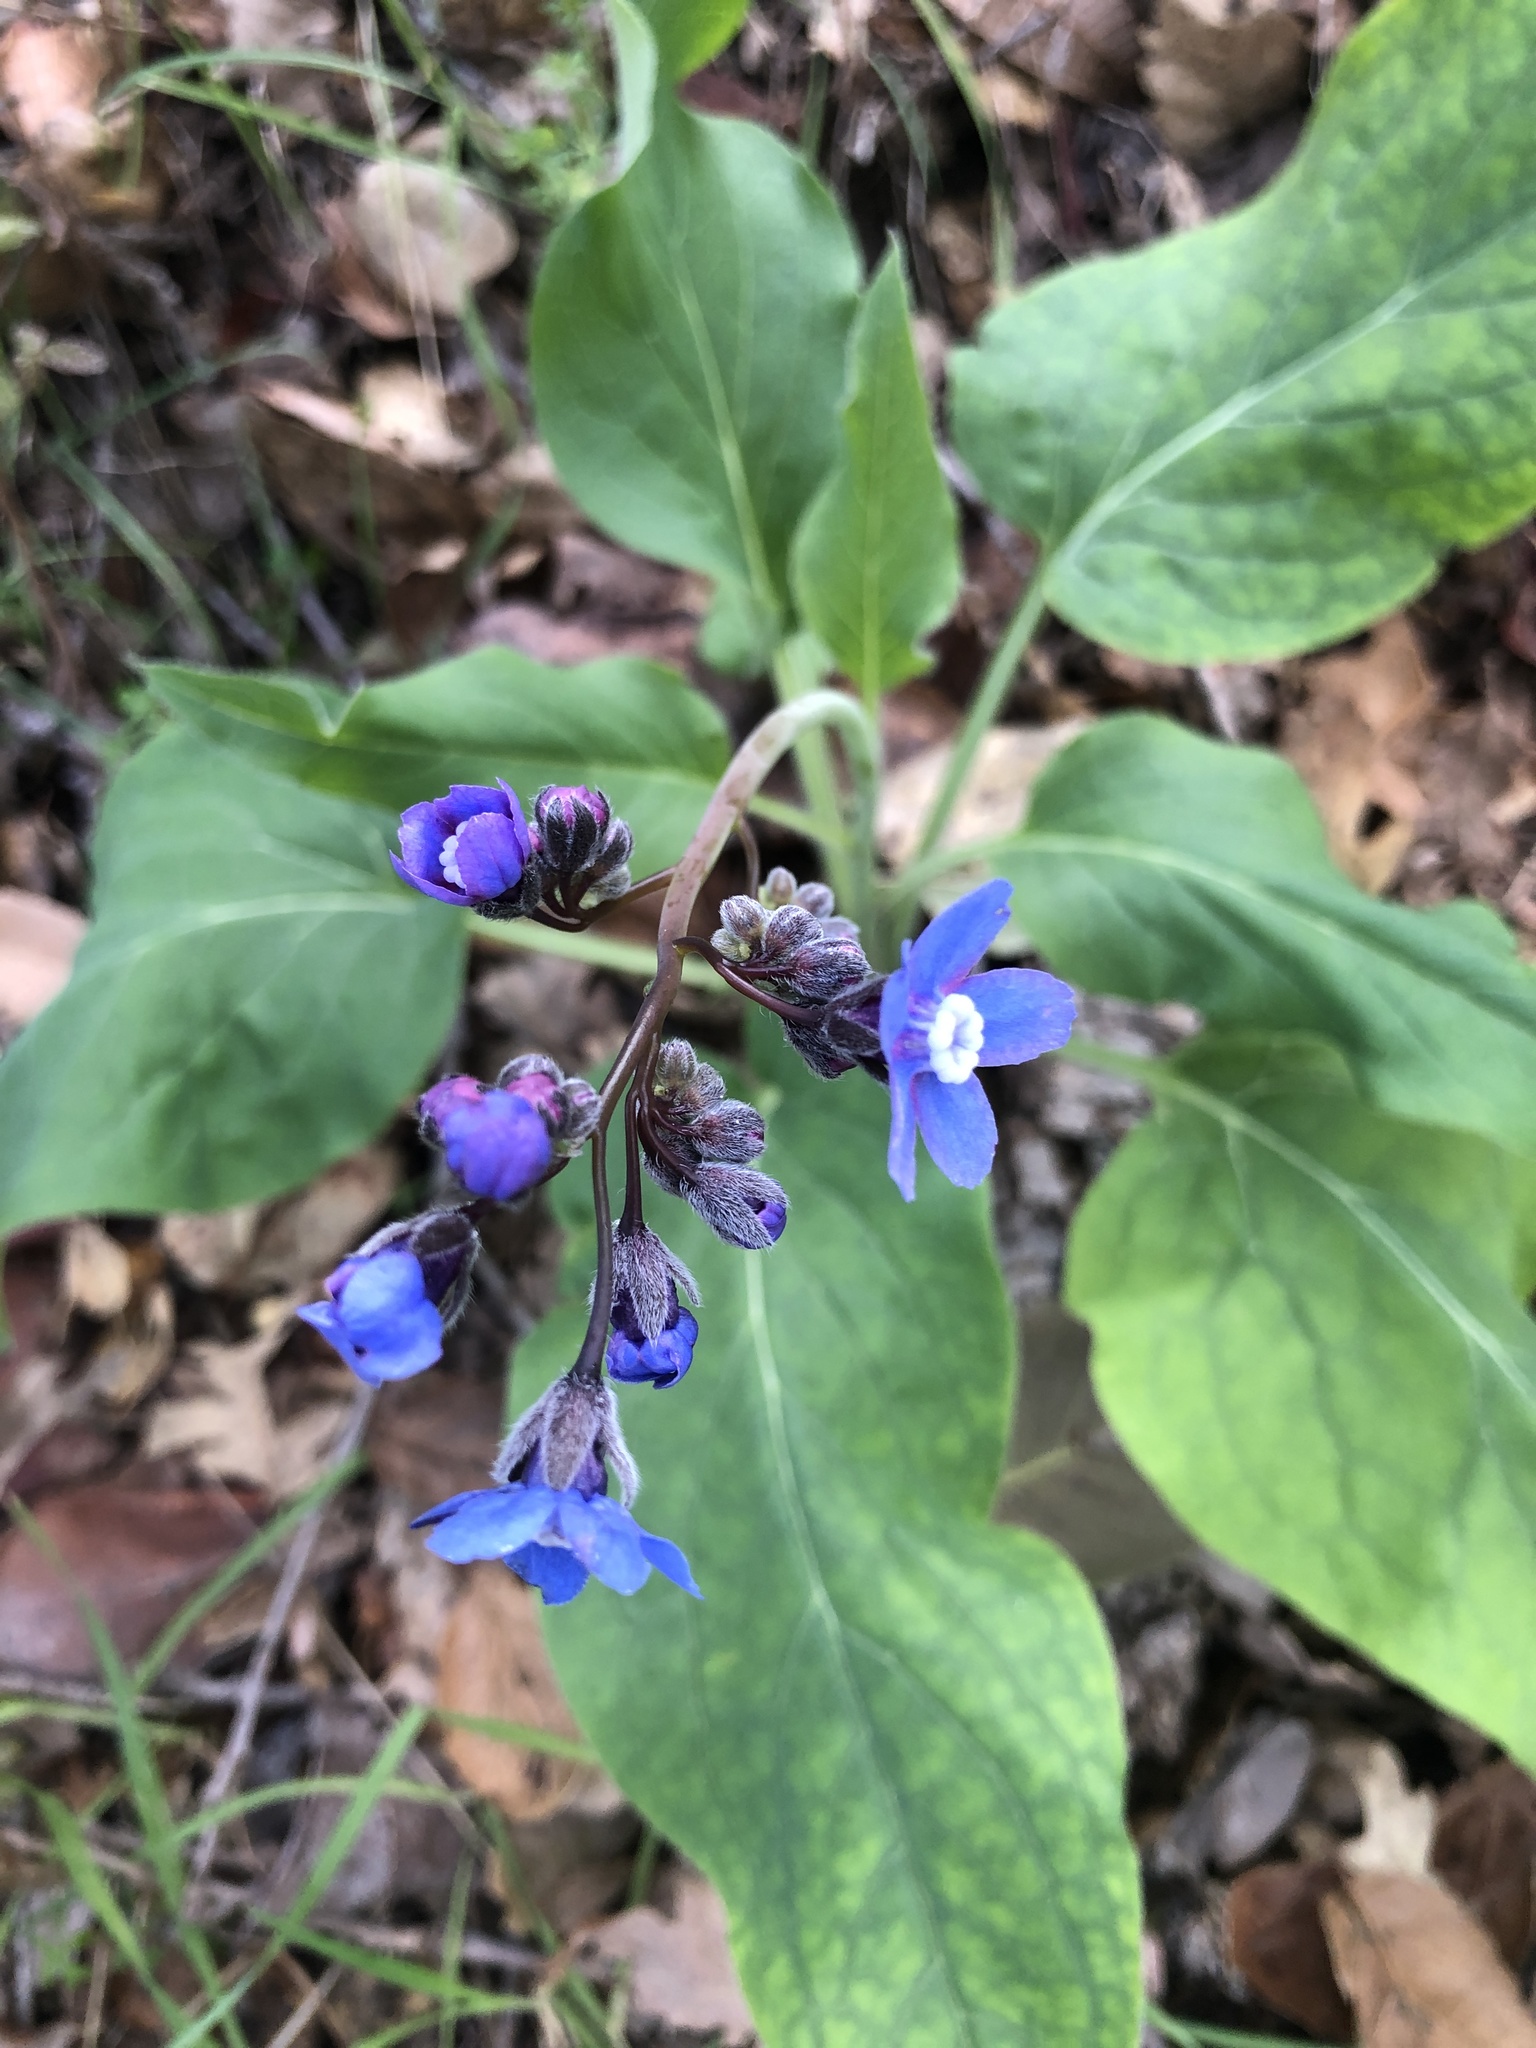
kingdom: Plantae
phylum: Tracheophyta
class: Magnoliopsida
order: Boraginales
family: Boraginaceae
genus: Adelinia
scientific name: Adelinia grande
